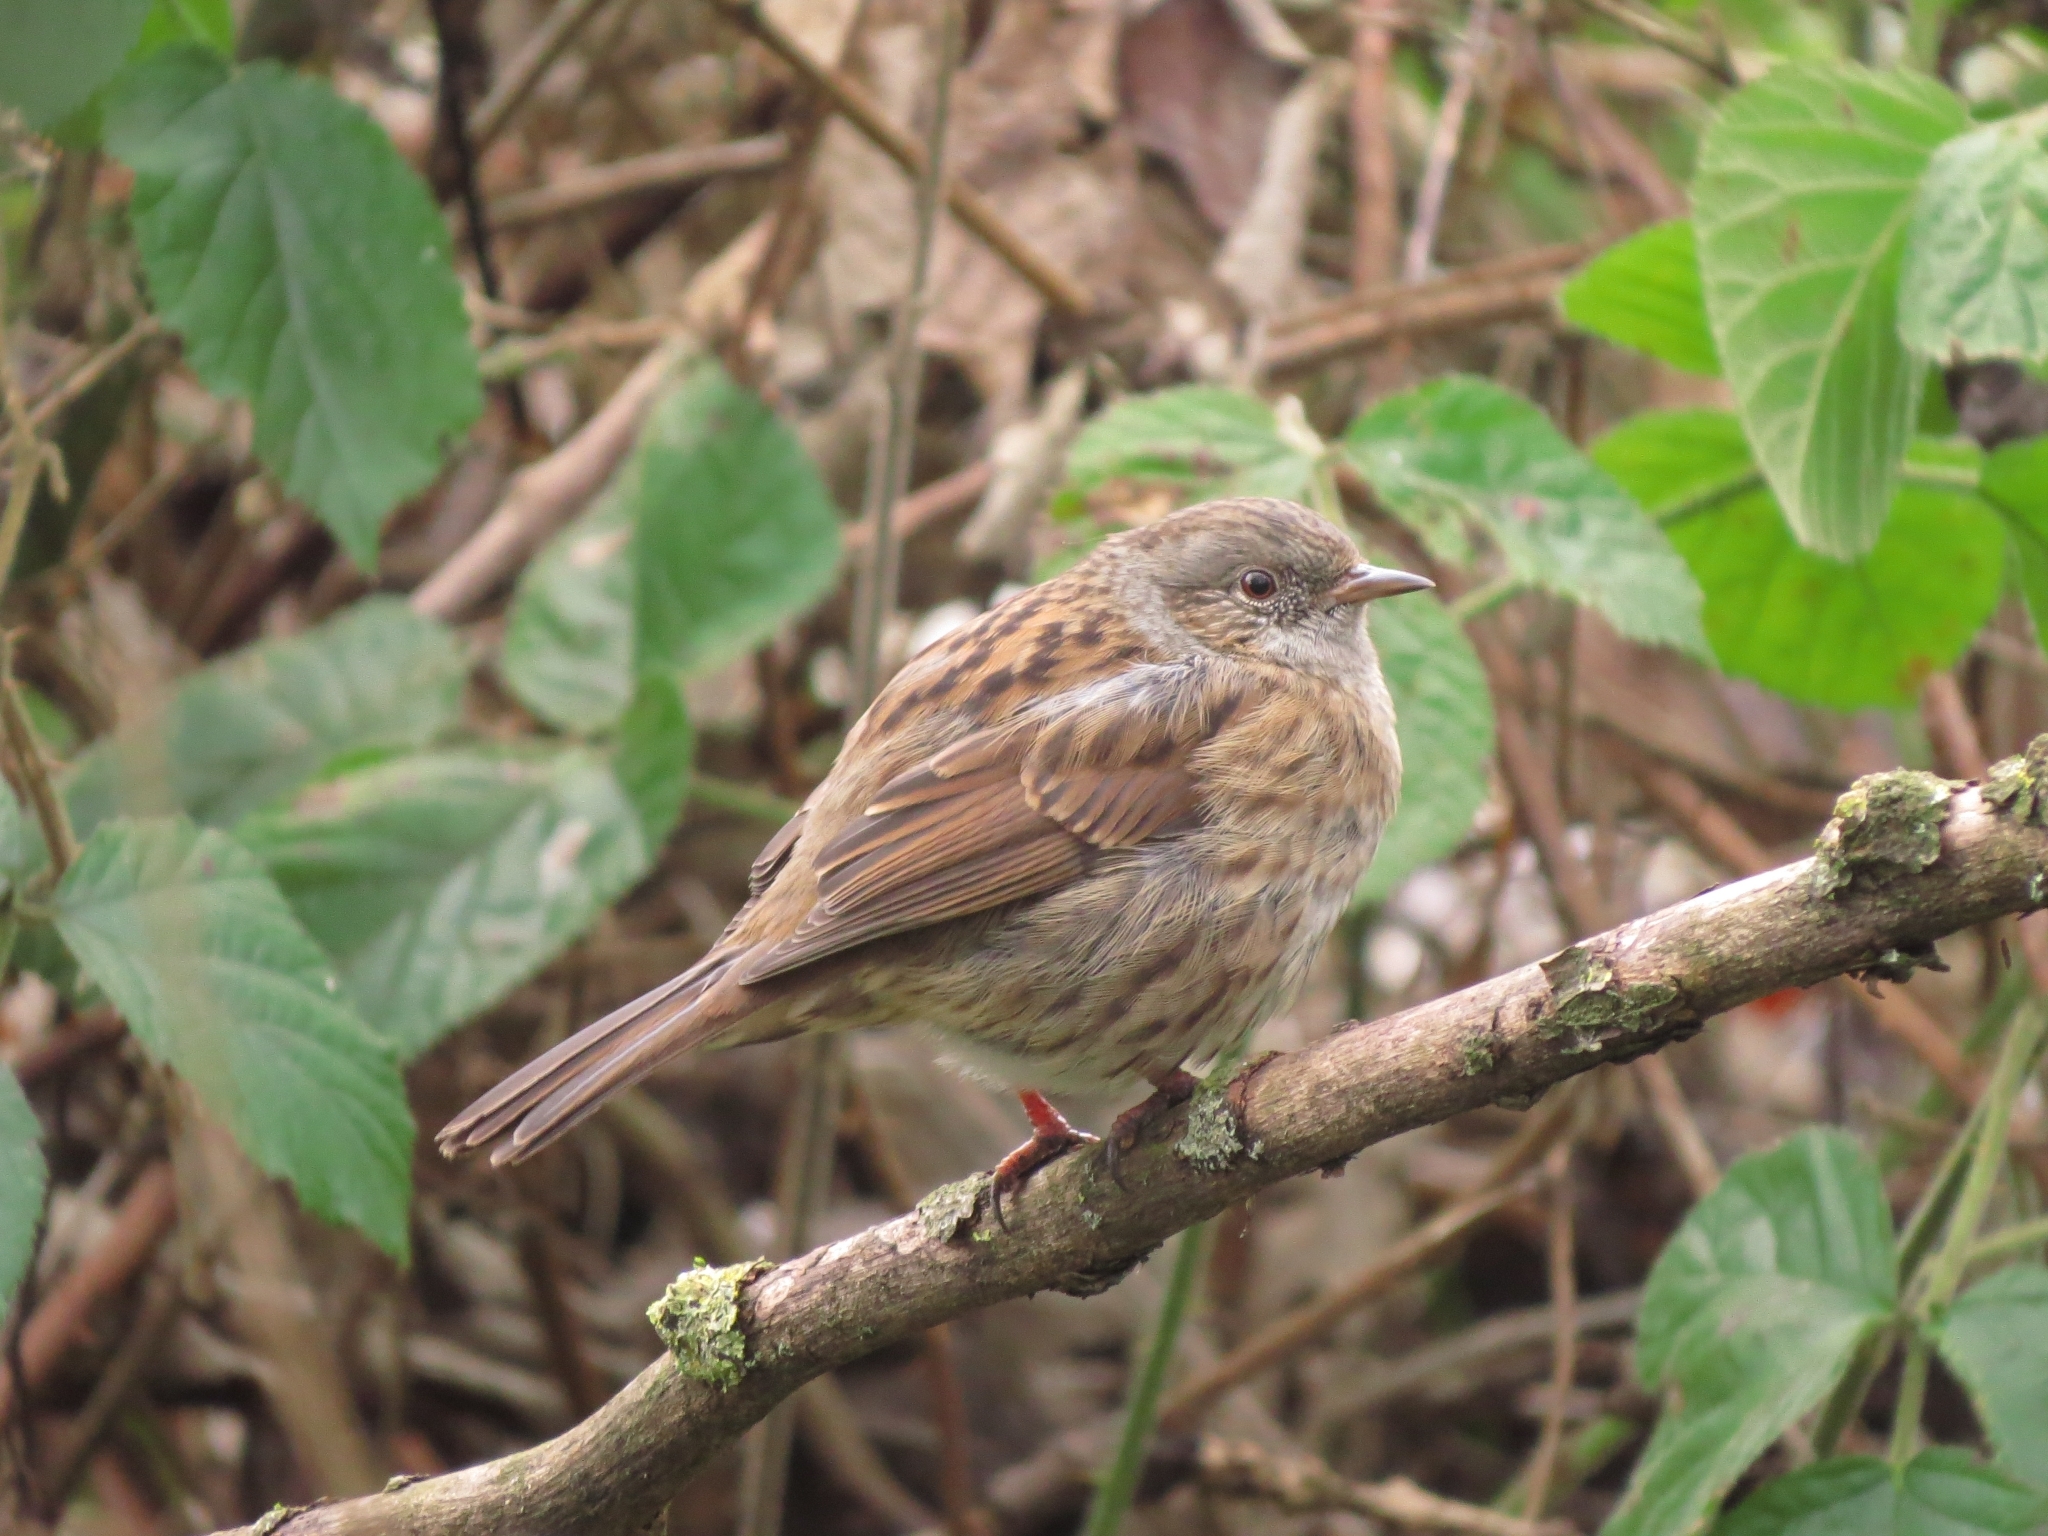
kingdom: Animalia
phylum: Chordata
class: Aves
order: Passeriformes
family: Prunellidae
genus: Prunella
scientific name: Prunella modularis
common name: Dunnock
